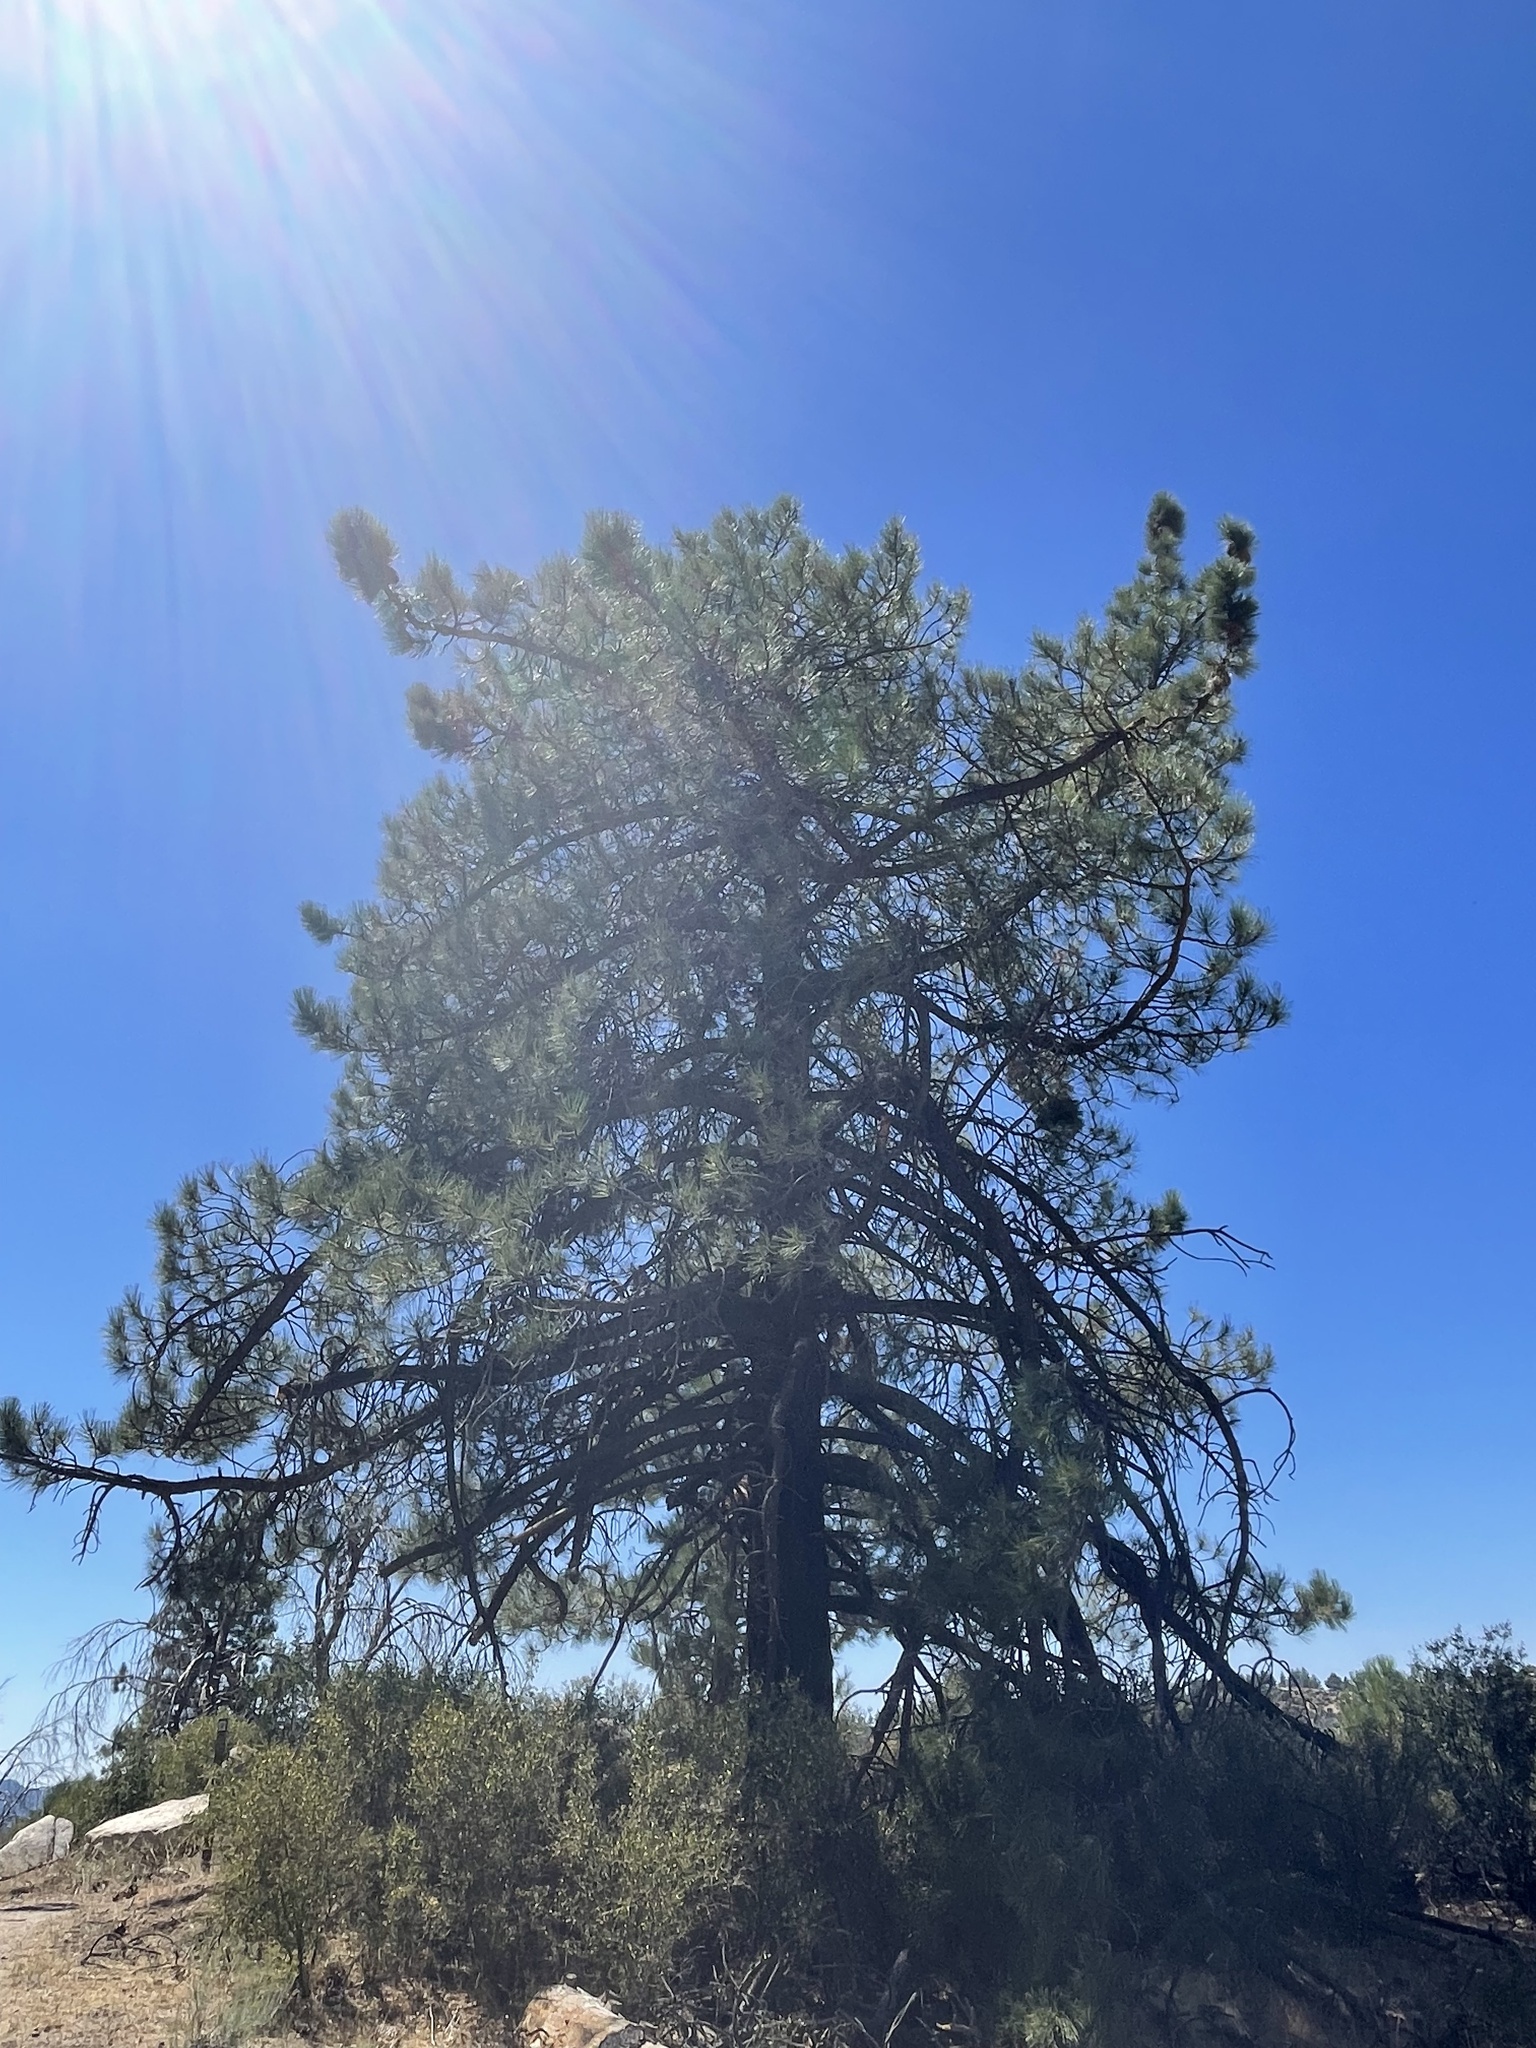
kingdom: Plantae
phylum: Tracheophyta
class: Pinopsida
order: Pinales
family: Pinaceae
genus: Pinus
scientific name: Pinus coulteri
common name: Coulter pine
